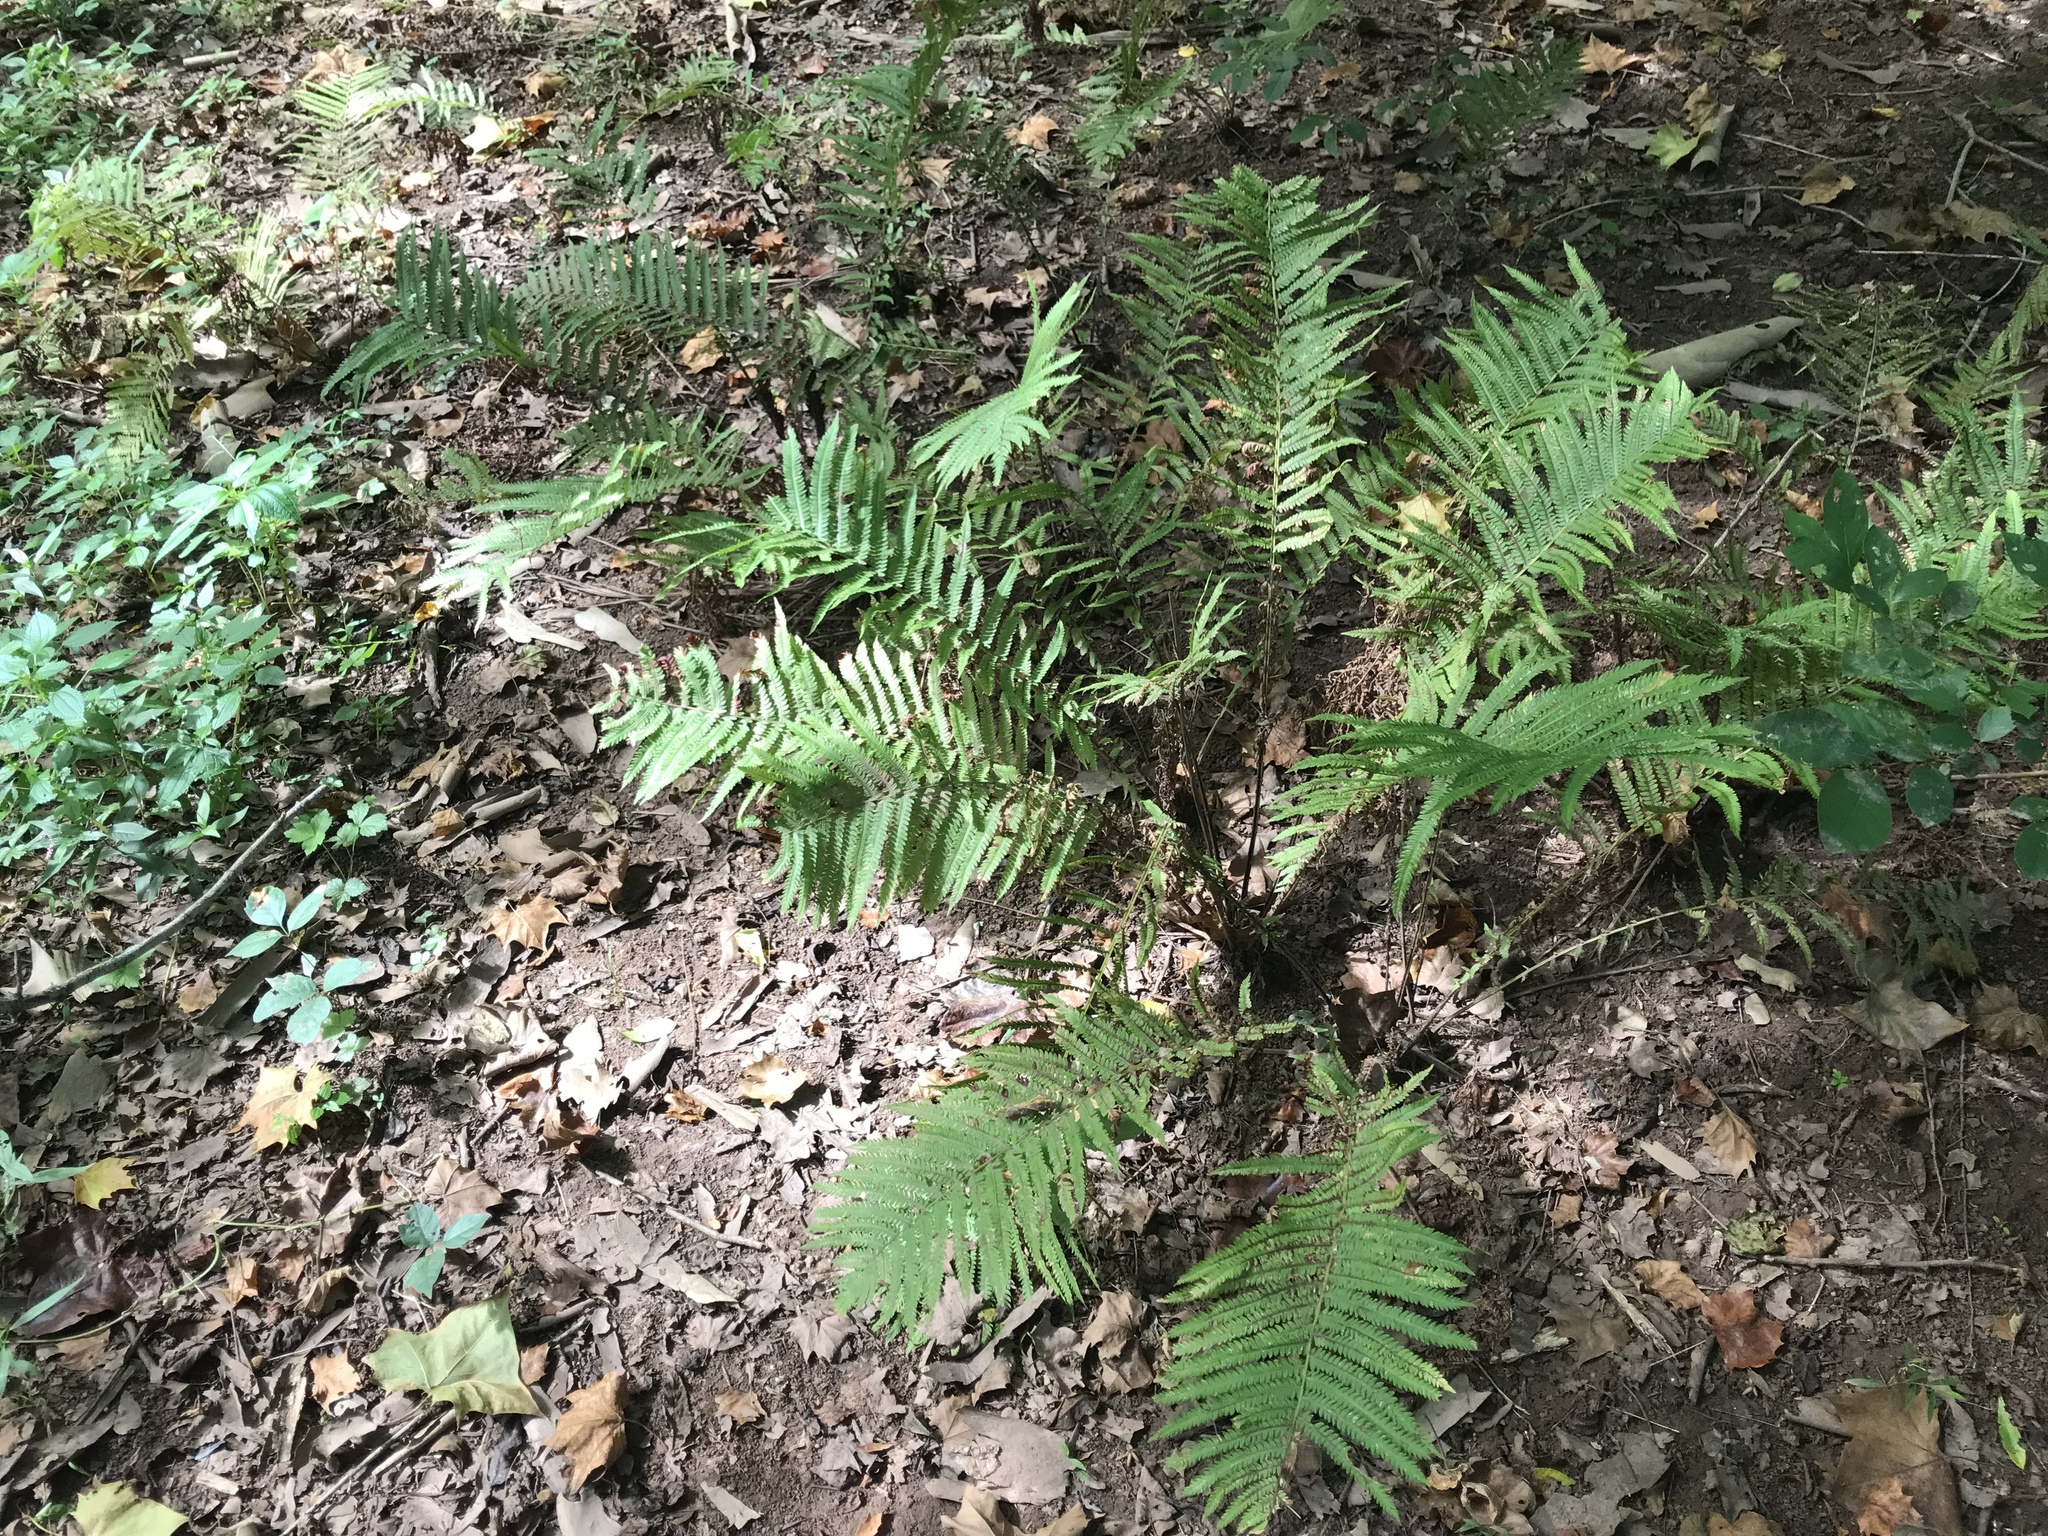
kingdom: Plantae
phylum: Tracheophyta
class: Polypodiopsida
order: Polypodiales
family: Onocleaceae
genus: Matteuccia
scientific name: Matteuccia struthiopteris
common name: Ostrich fern
